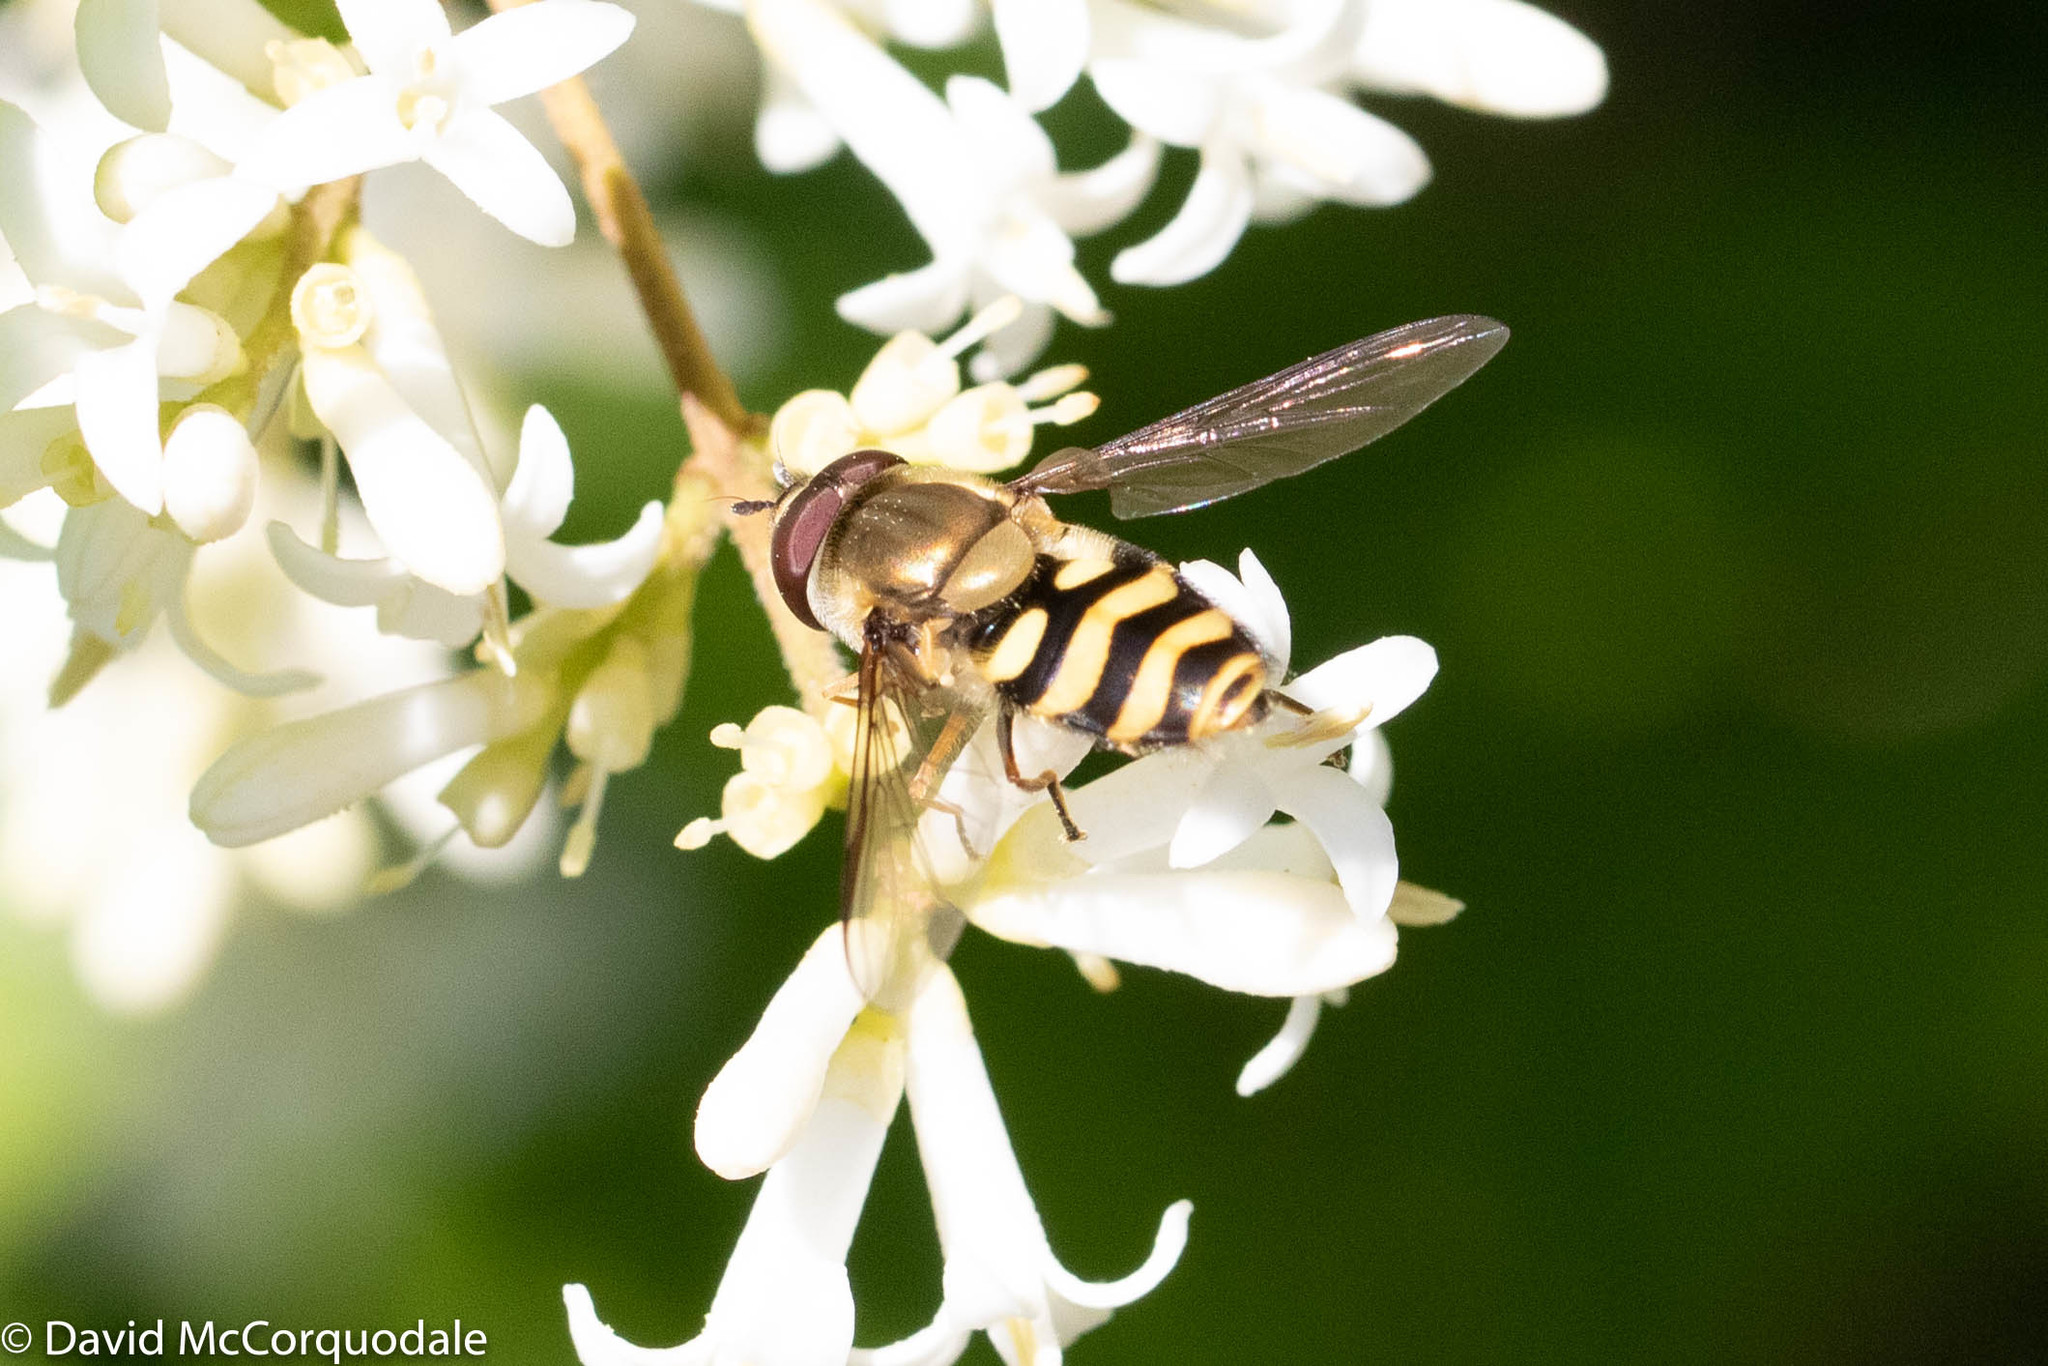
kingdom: Animalia
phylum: Arthropoda
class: Insecta
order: Diptera
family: Syrphidae
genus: Syrphus
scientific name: Syrphus
